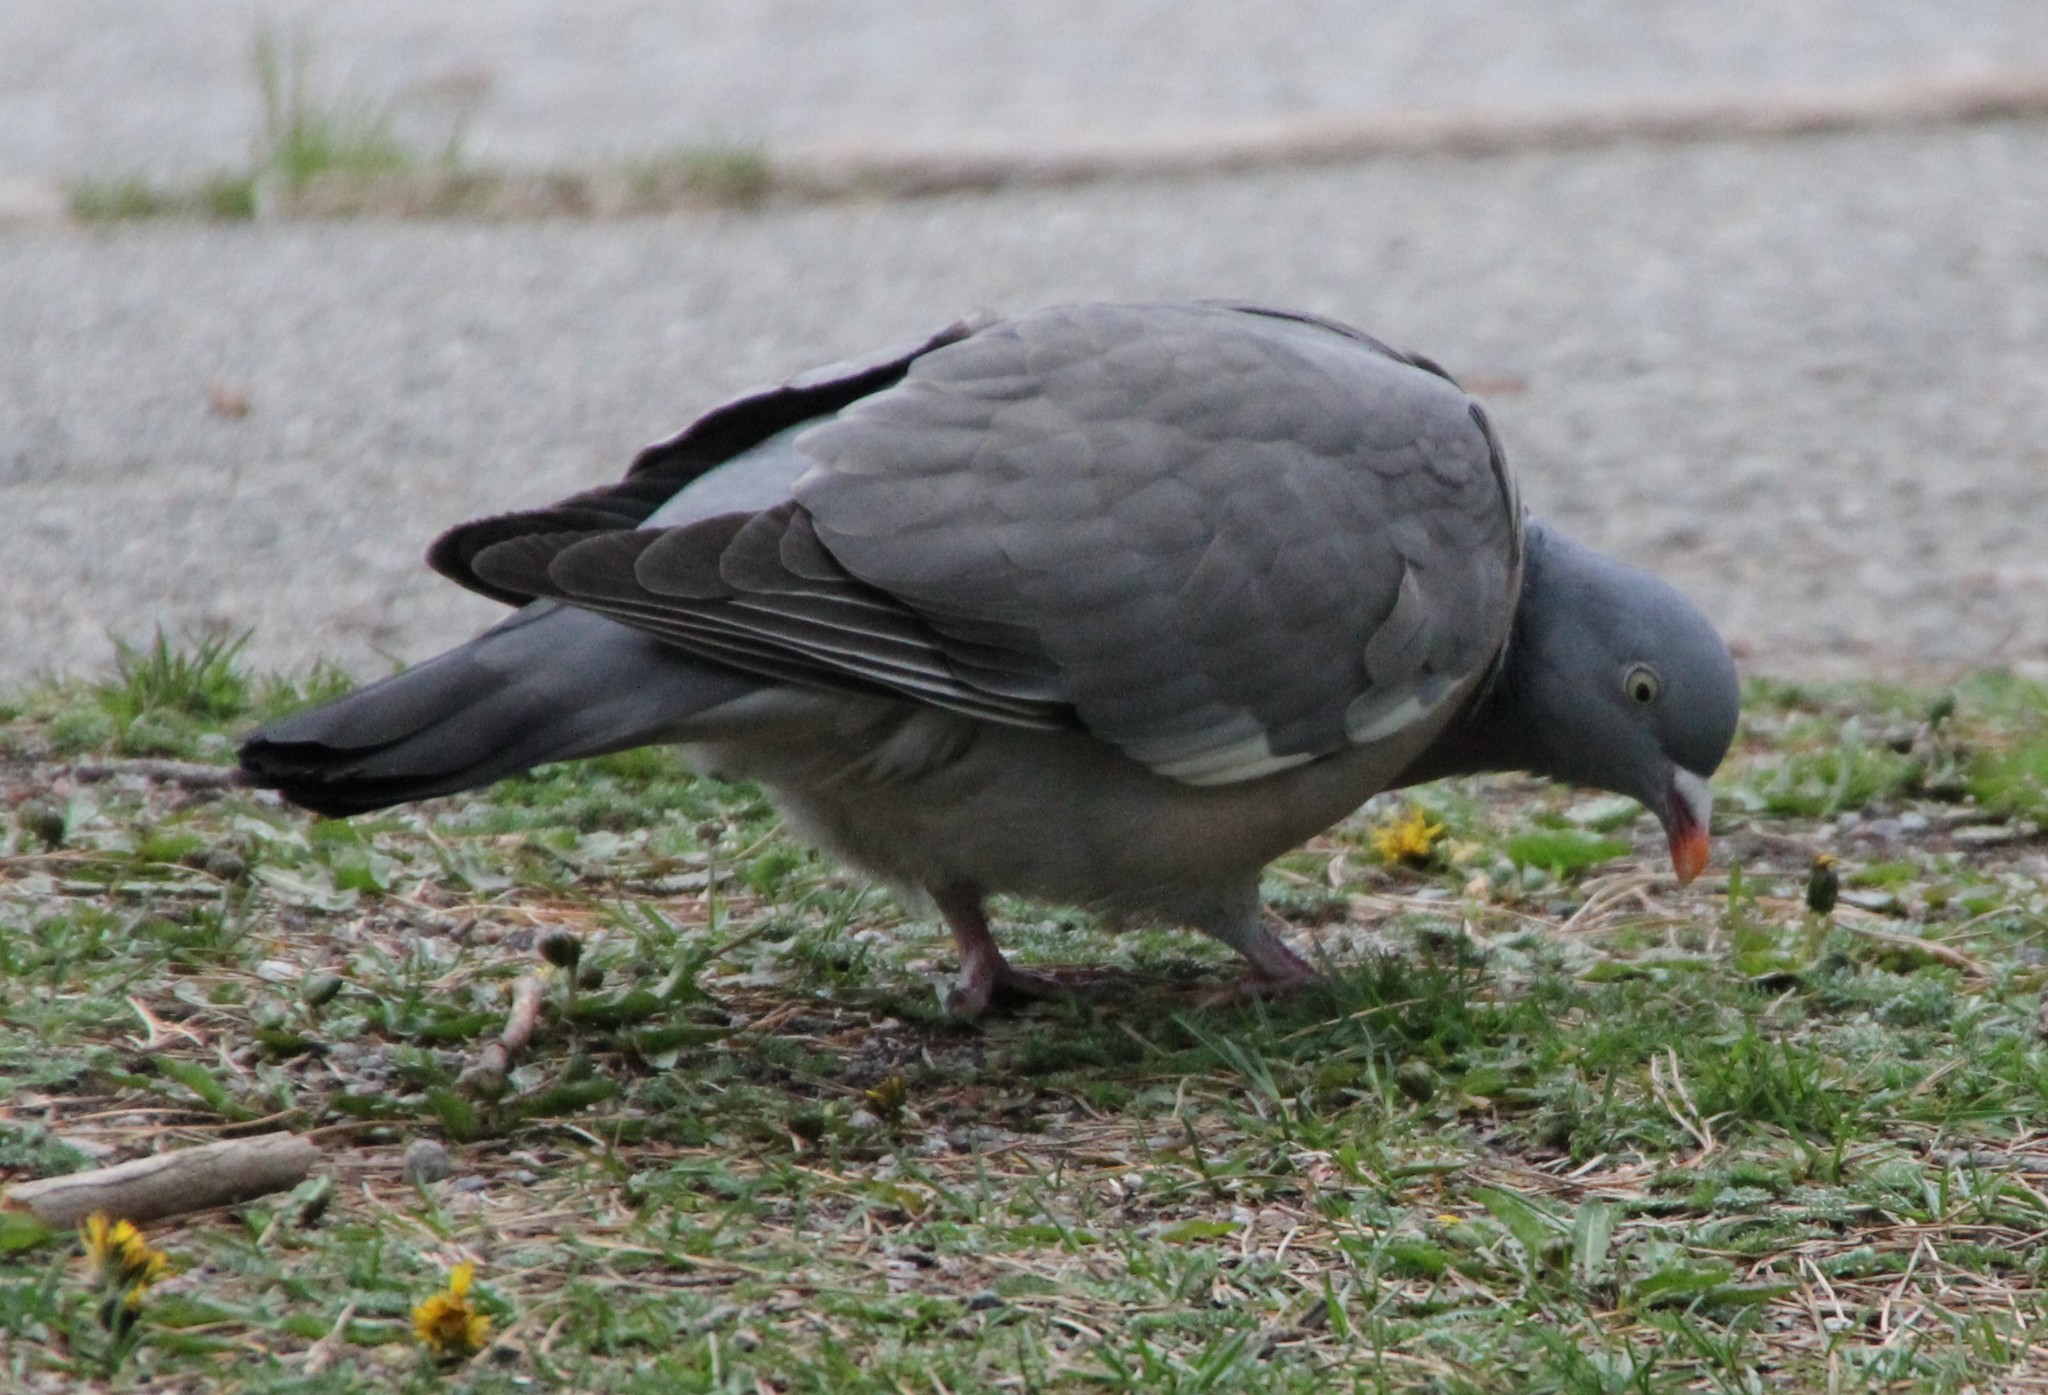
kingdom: Animalia
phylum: Chordata
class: Aves
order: Columbiformes
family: Columbidae
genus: Columba
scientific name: Columba palumbus
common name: Common wood pigeon
